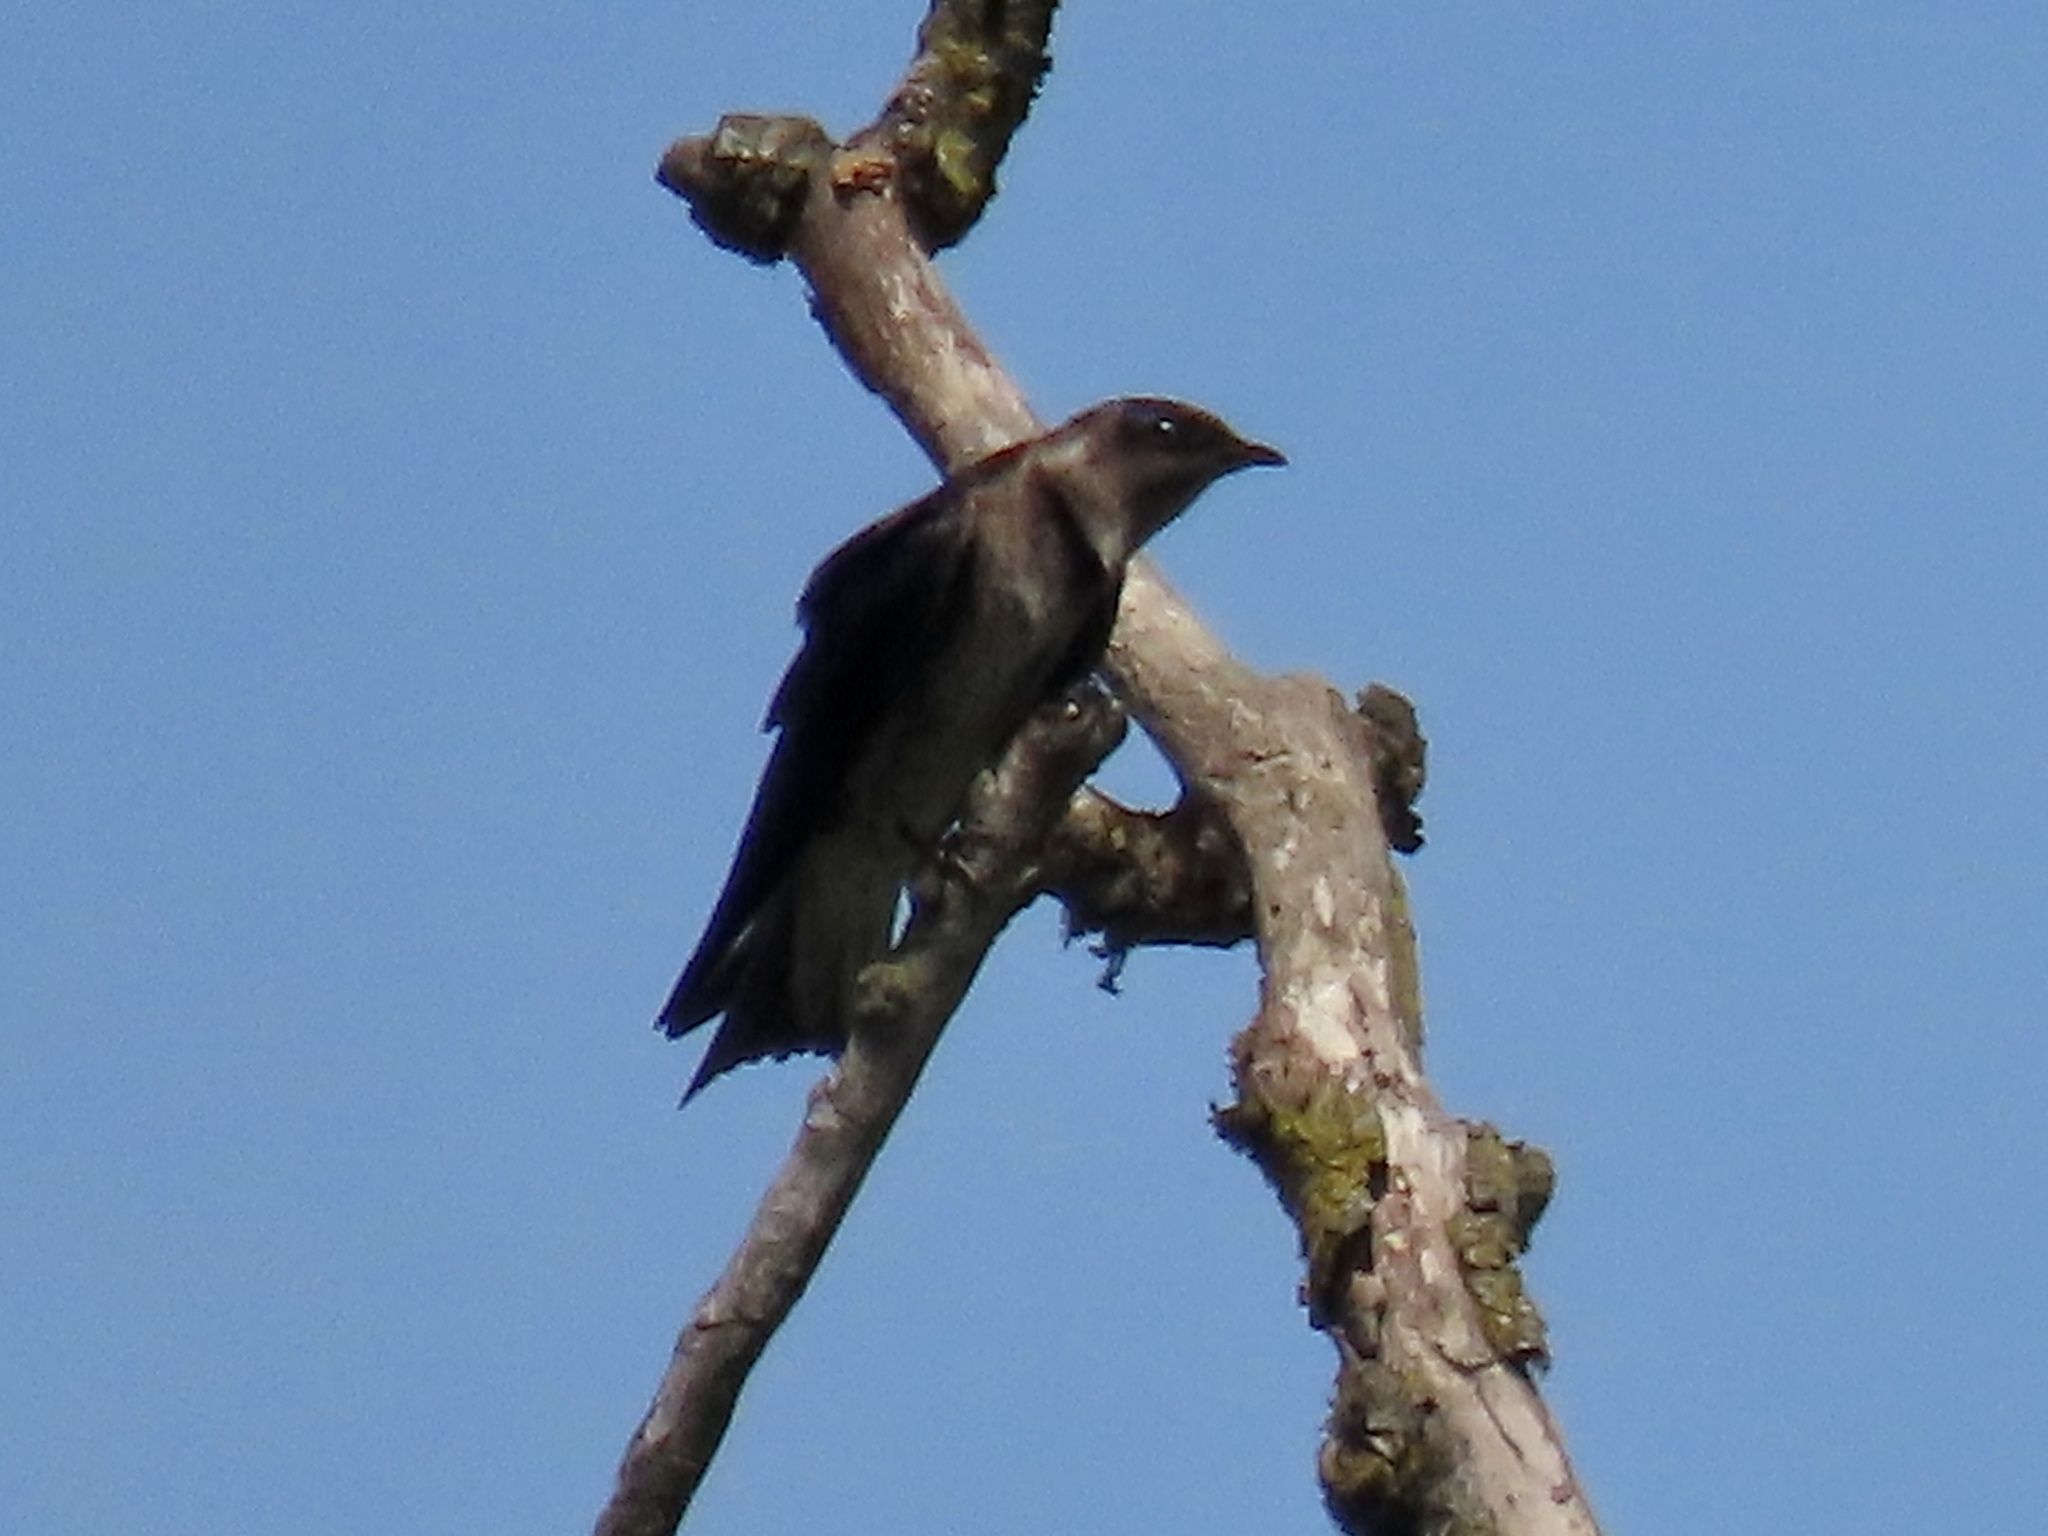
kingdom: Animalia
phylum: Chordata
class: Aves
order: Passeriformes
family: Hirundinidae
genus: Progne
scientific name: Progne subis
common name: Purple martin
